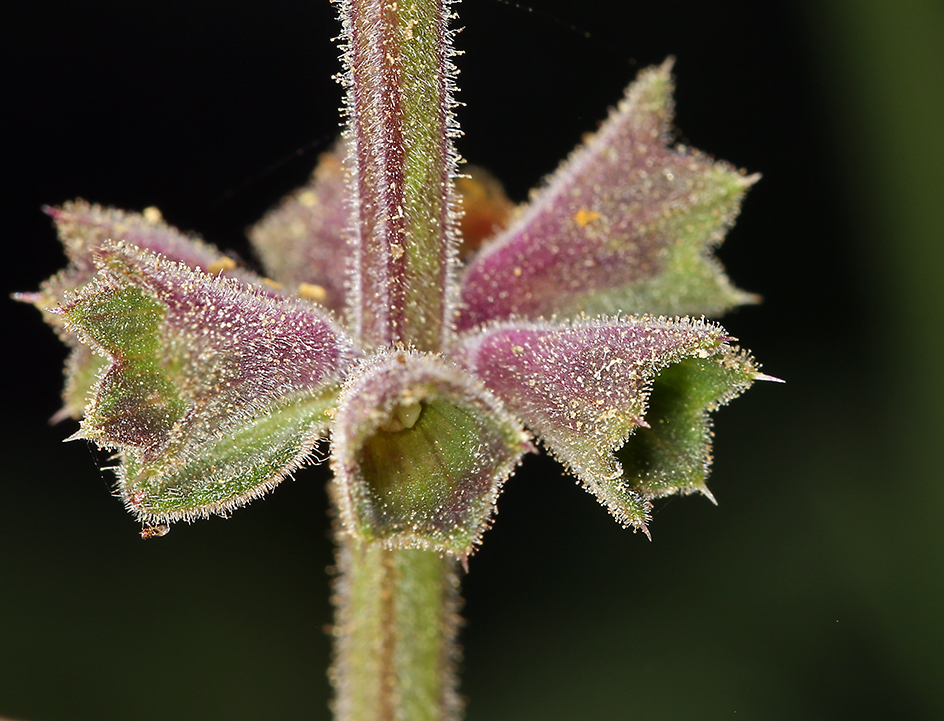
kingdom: Plantae
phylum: Tracheophyta
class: Magnoliopsida
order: Lamiales
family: Lamiaceae
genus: Stachys
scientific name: Stachys bullata
